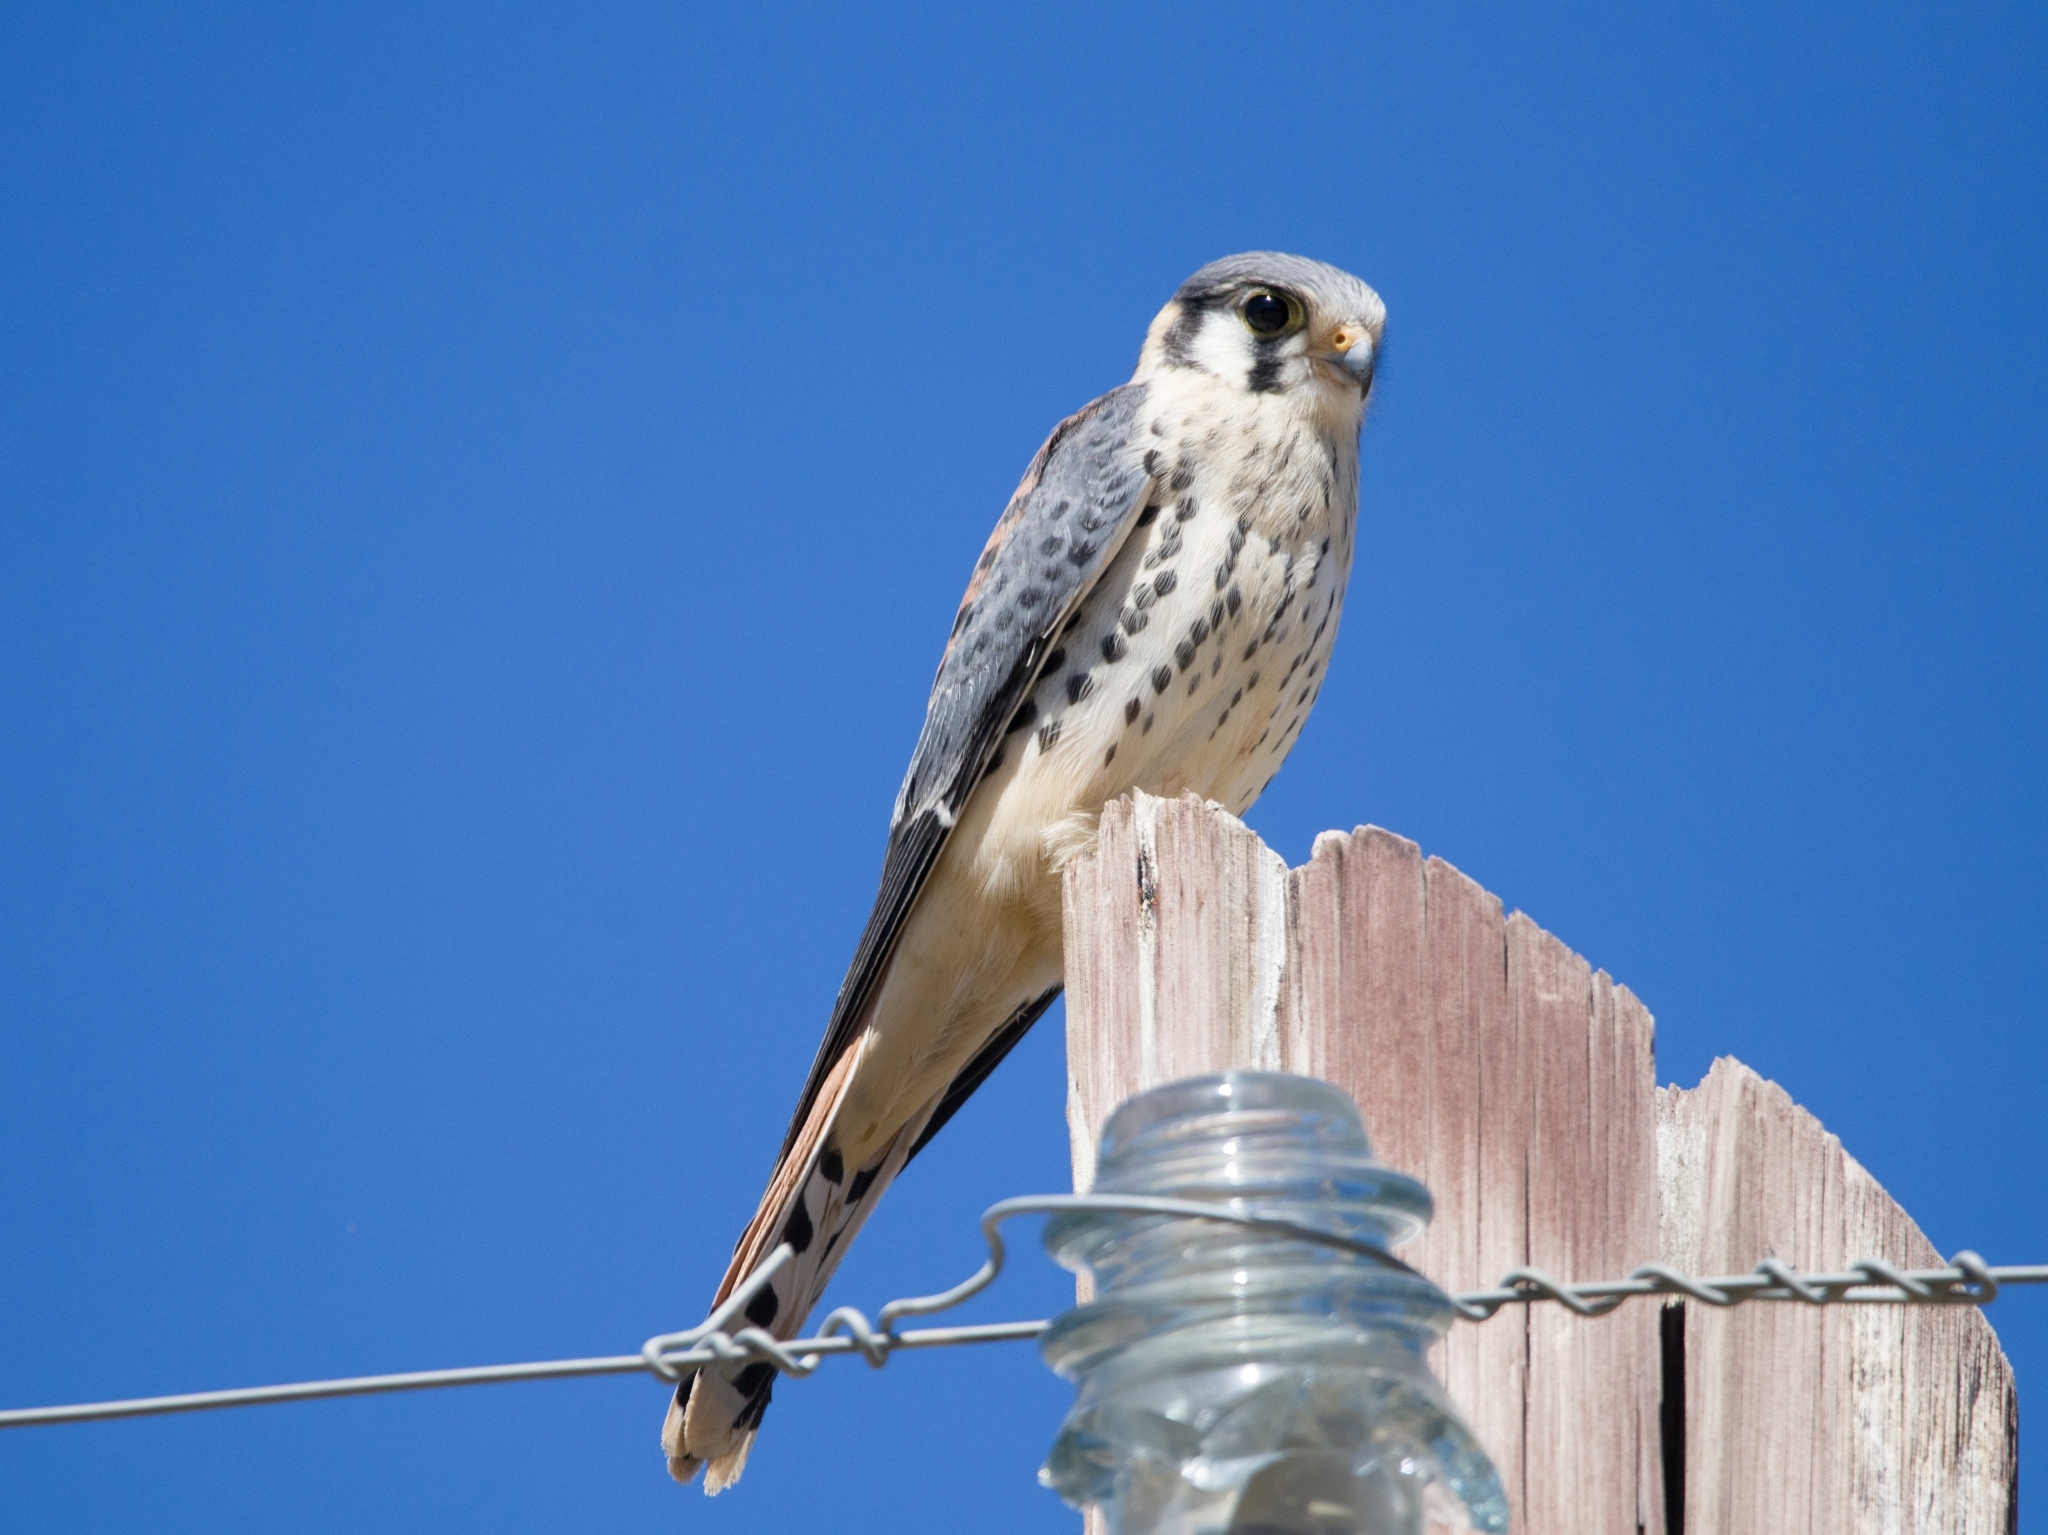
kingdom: Animalia
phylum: Chordata
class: Aves
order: Falconiformes
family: Falconidae
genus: Falco
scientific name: Falco sparverius
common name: American kestrel
